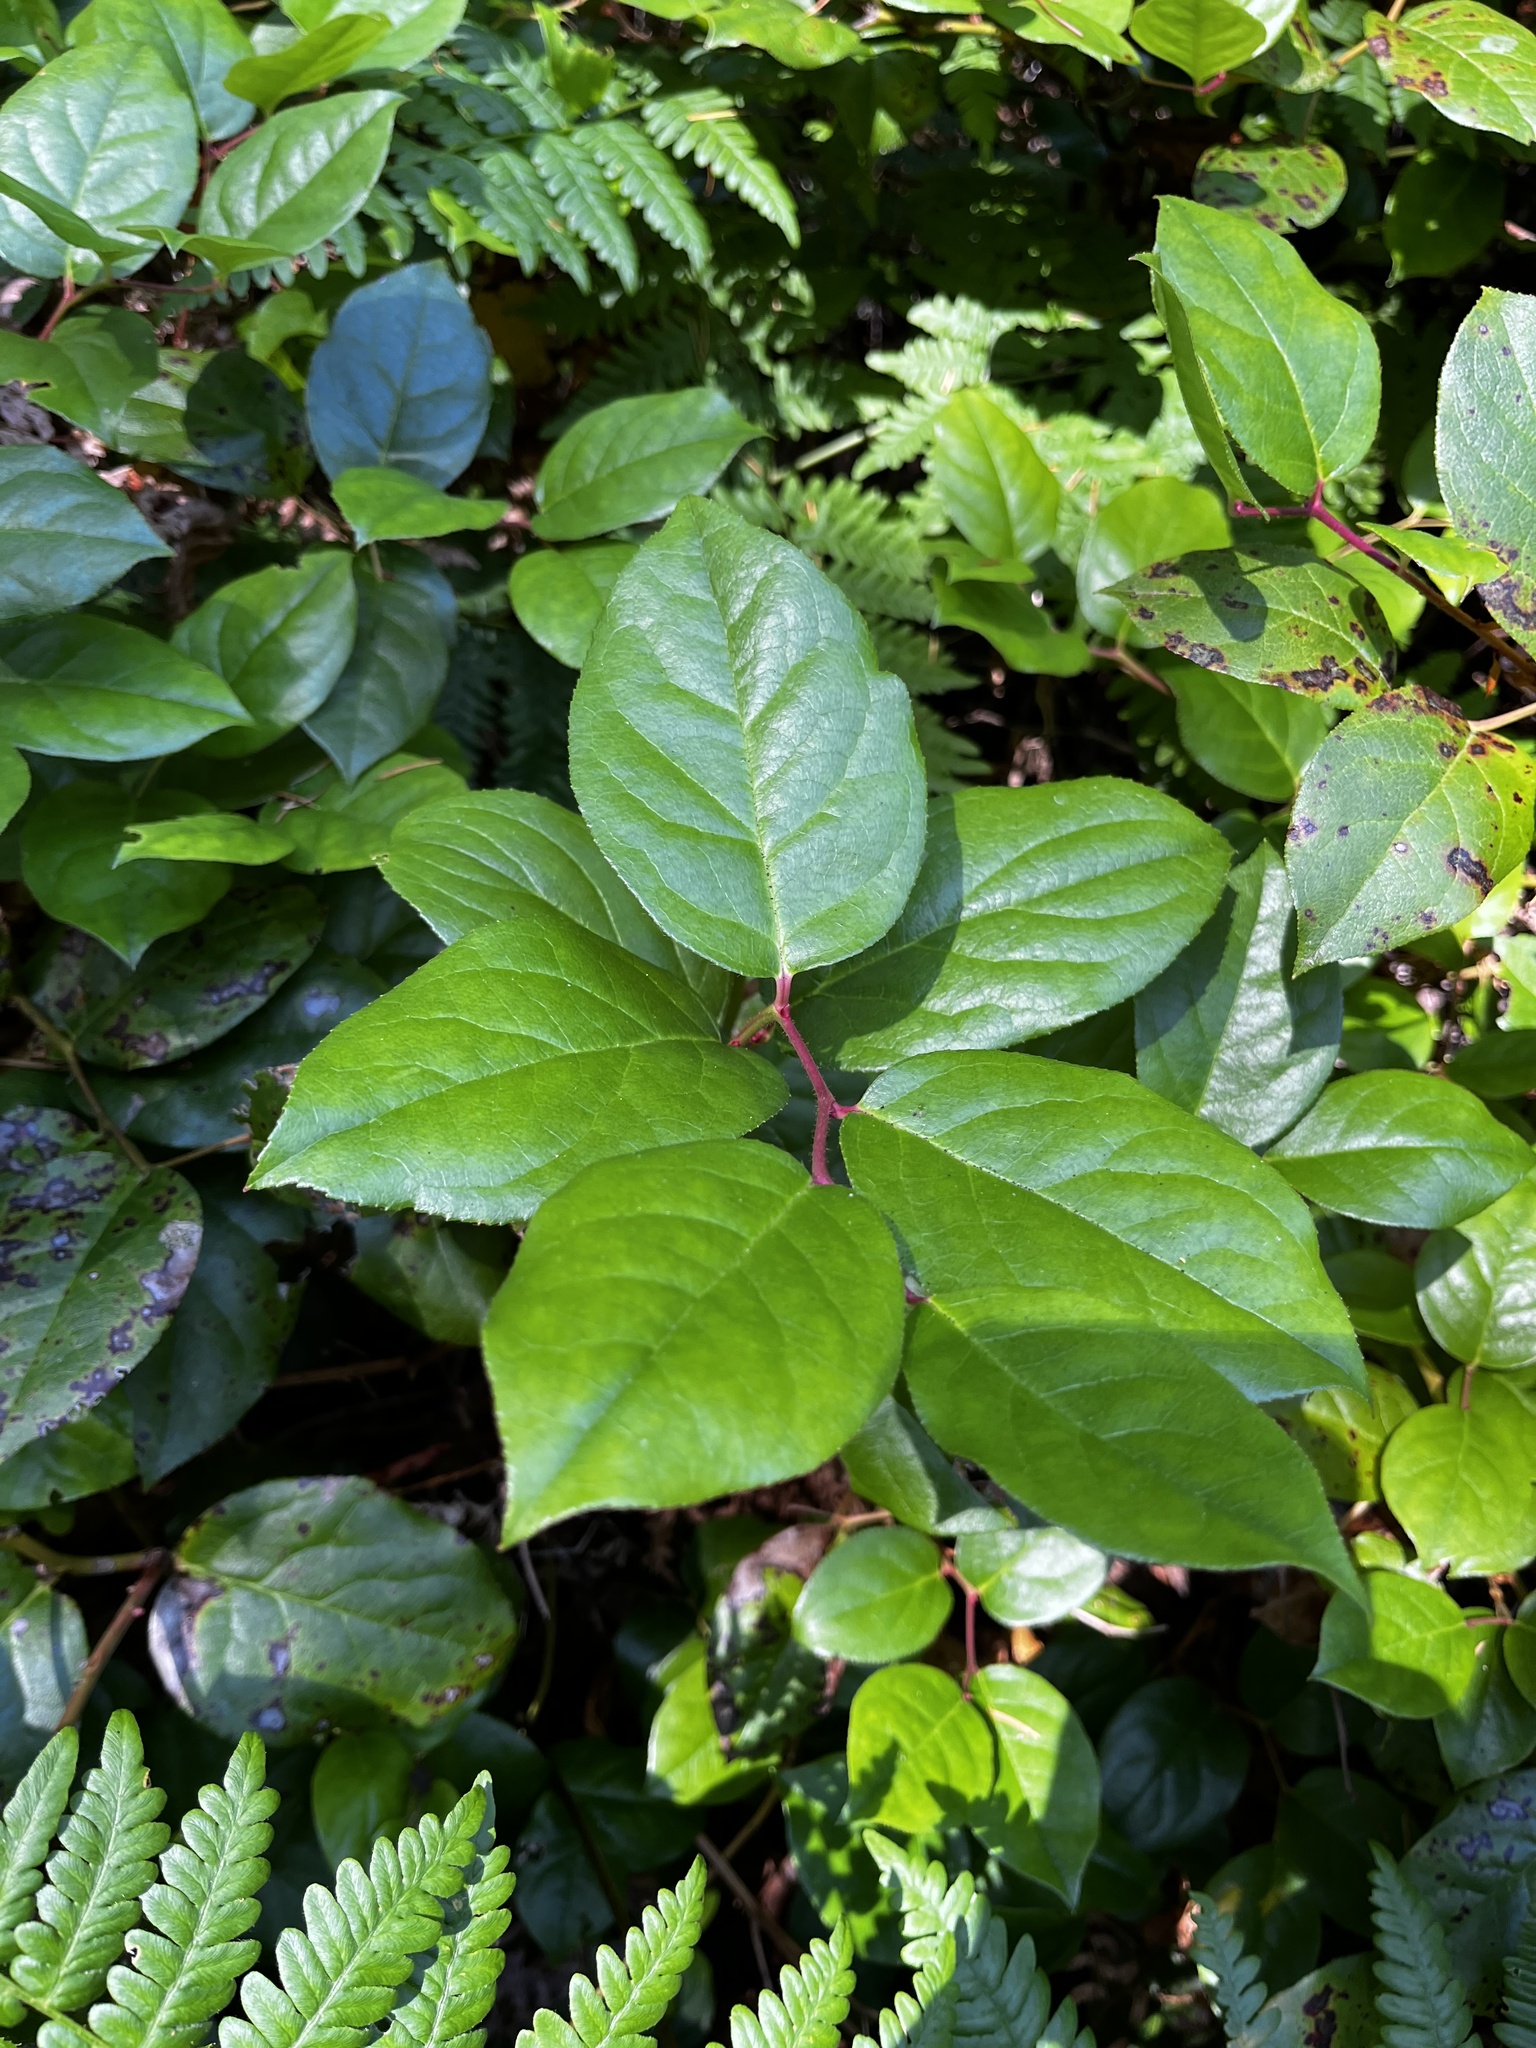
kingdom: Plantae
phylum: Tracheophyta
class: Magnoliopsida
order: Ericales
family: Ericaceae
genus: Gaultheria
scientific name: Gaultheria shallon
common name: Shallon
